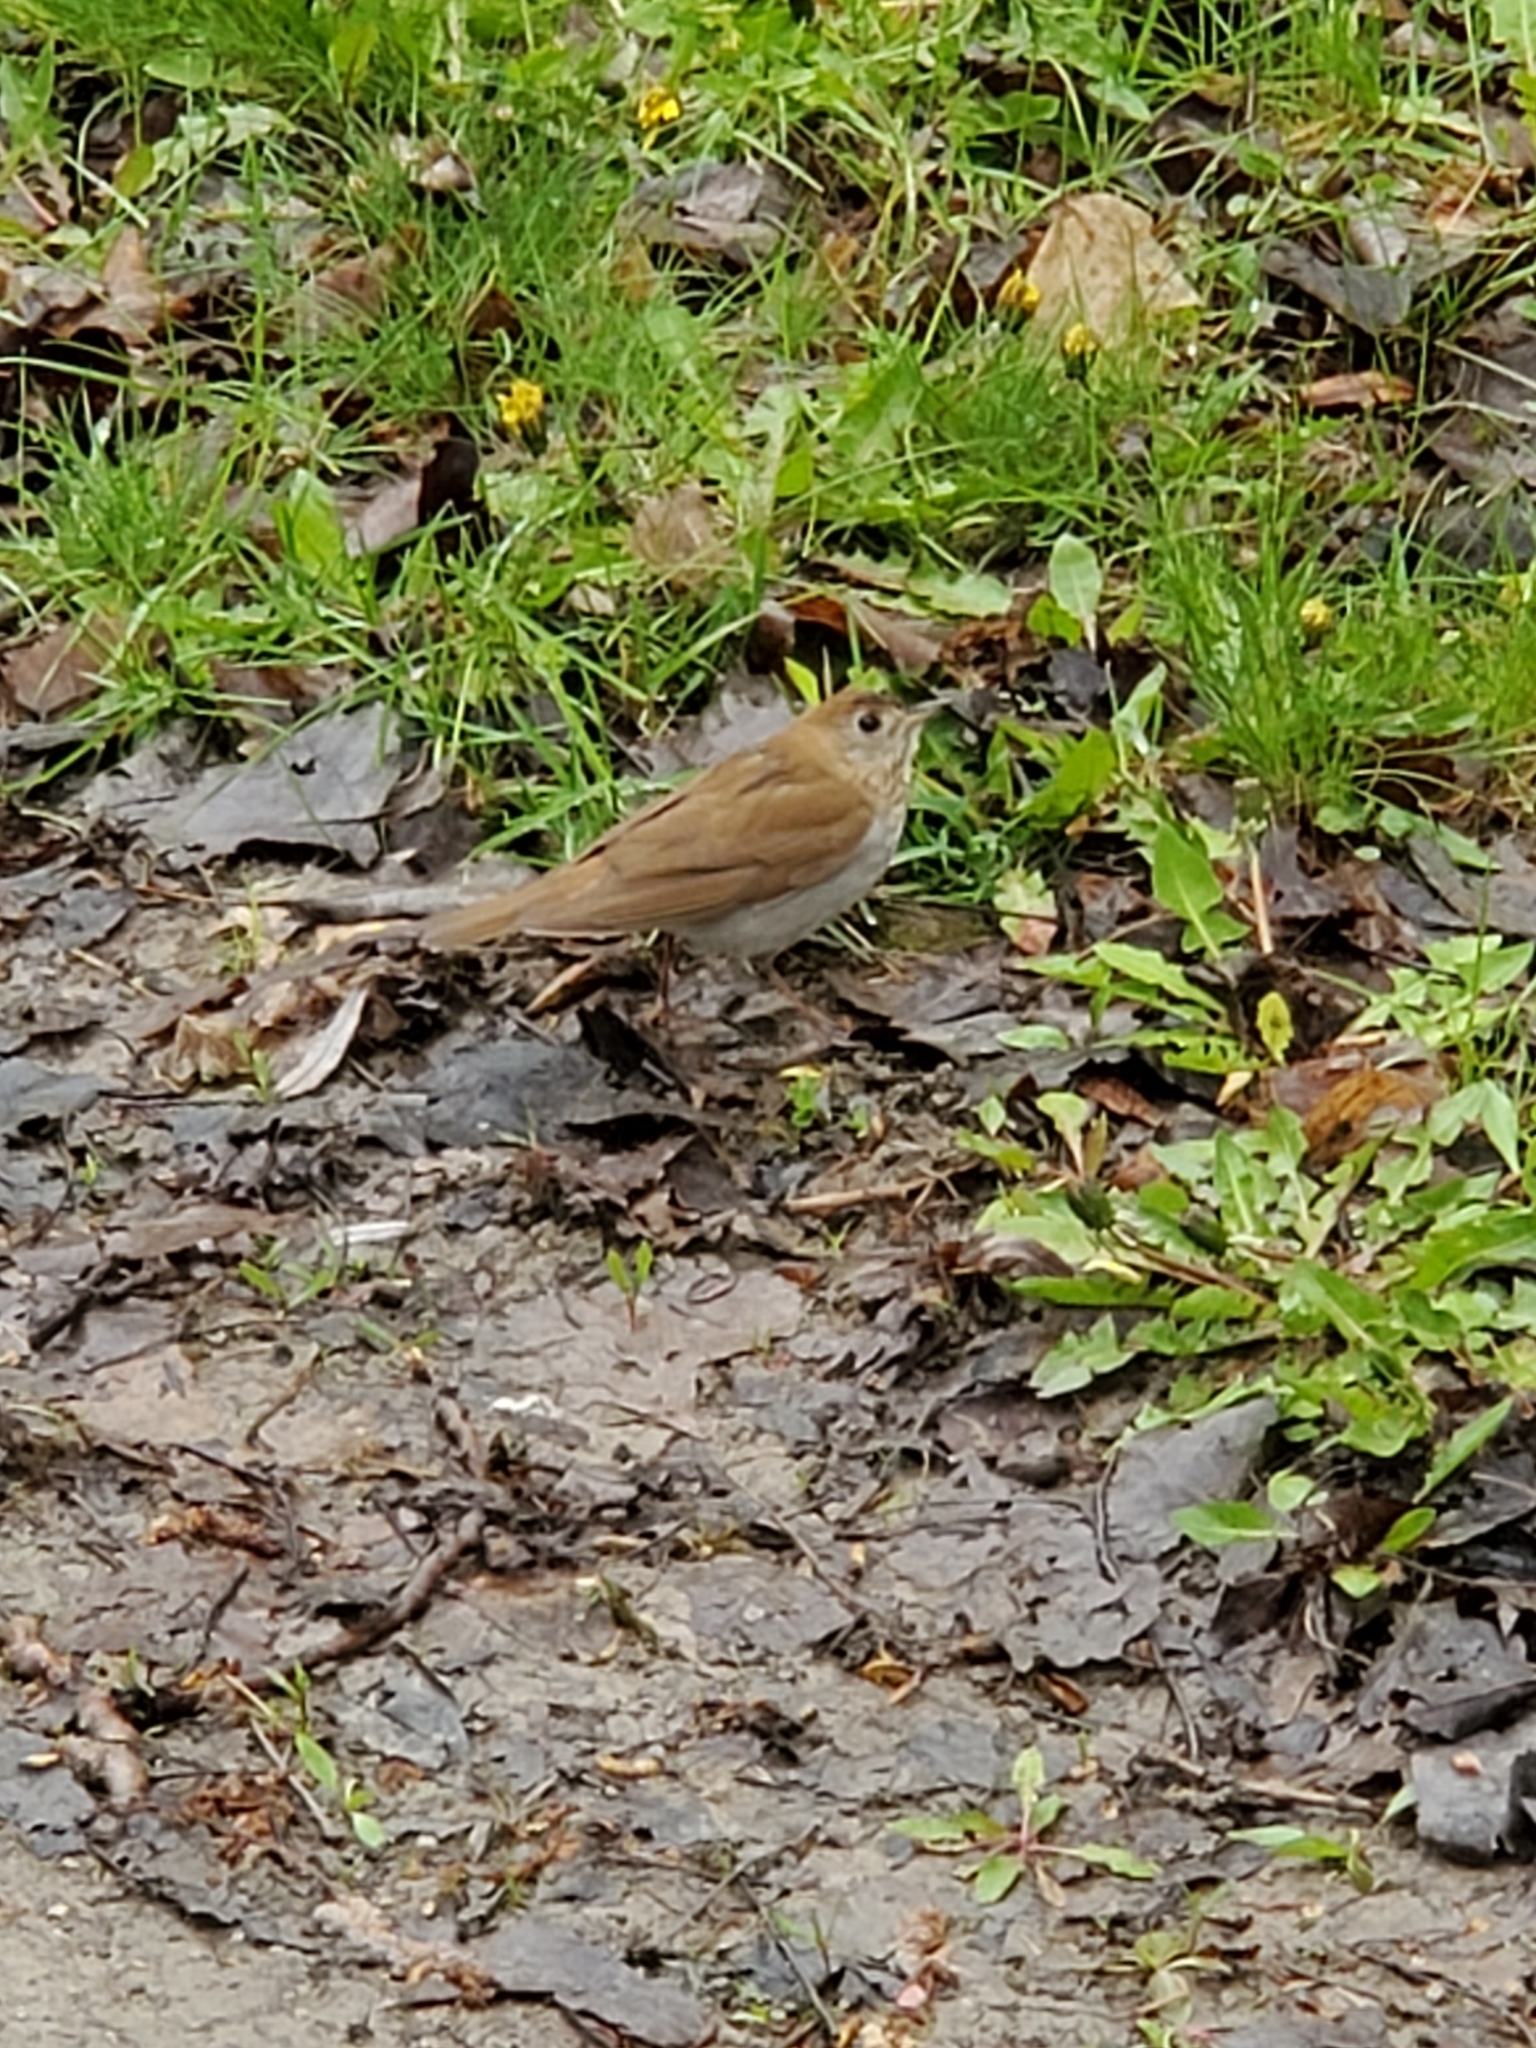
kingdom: Animalia
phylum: Chordata
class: Aves
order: Passeriformes
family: Turdidae
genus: Catharus
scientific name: Catharus fuscescens
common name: Veery
